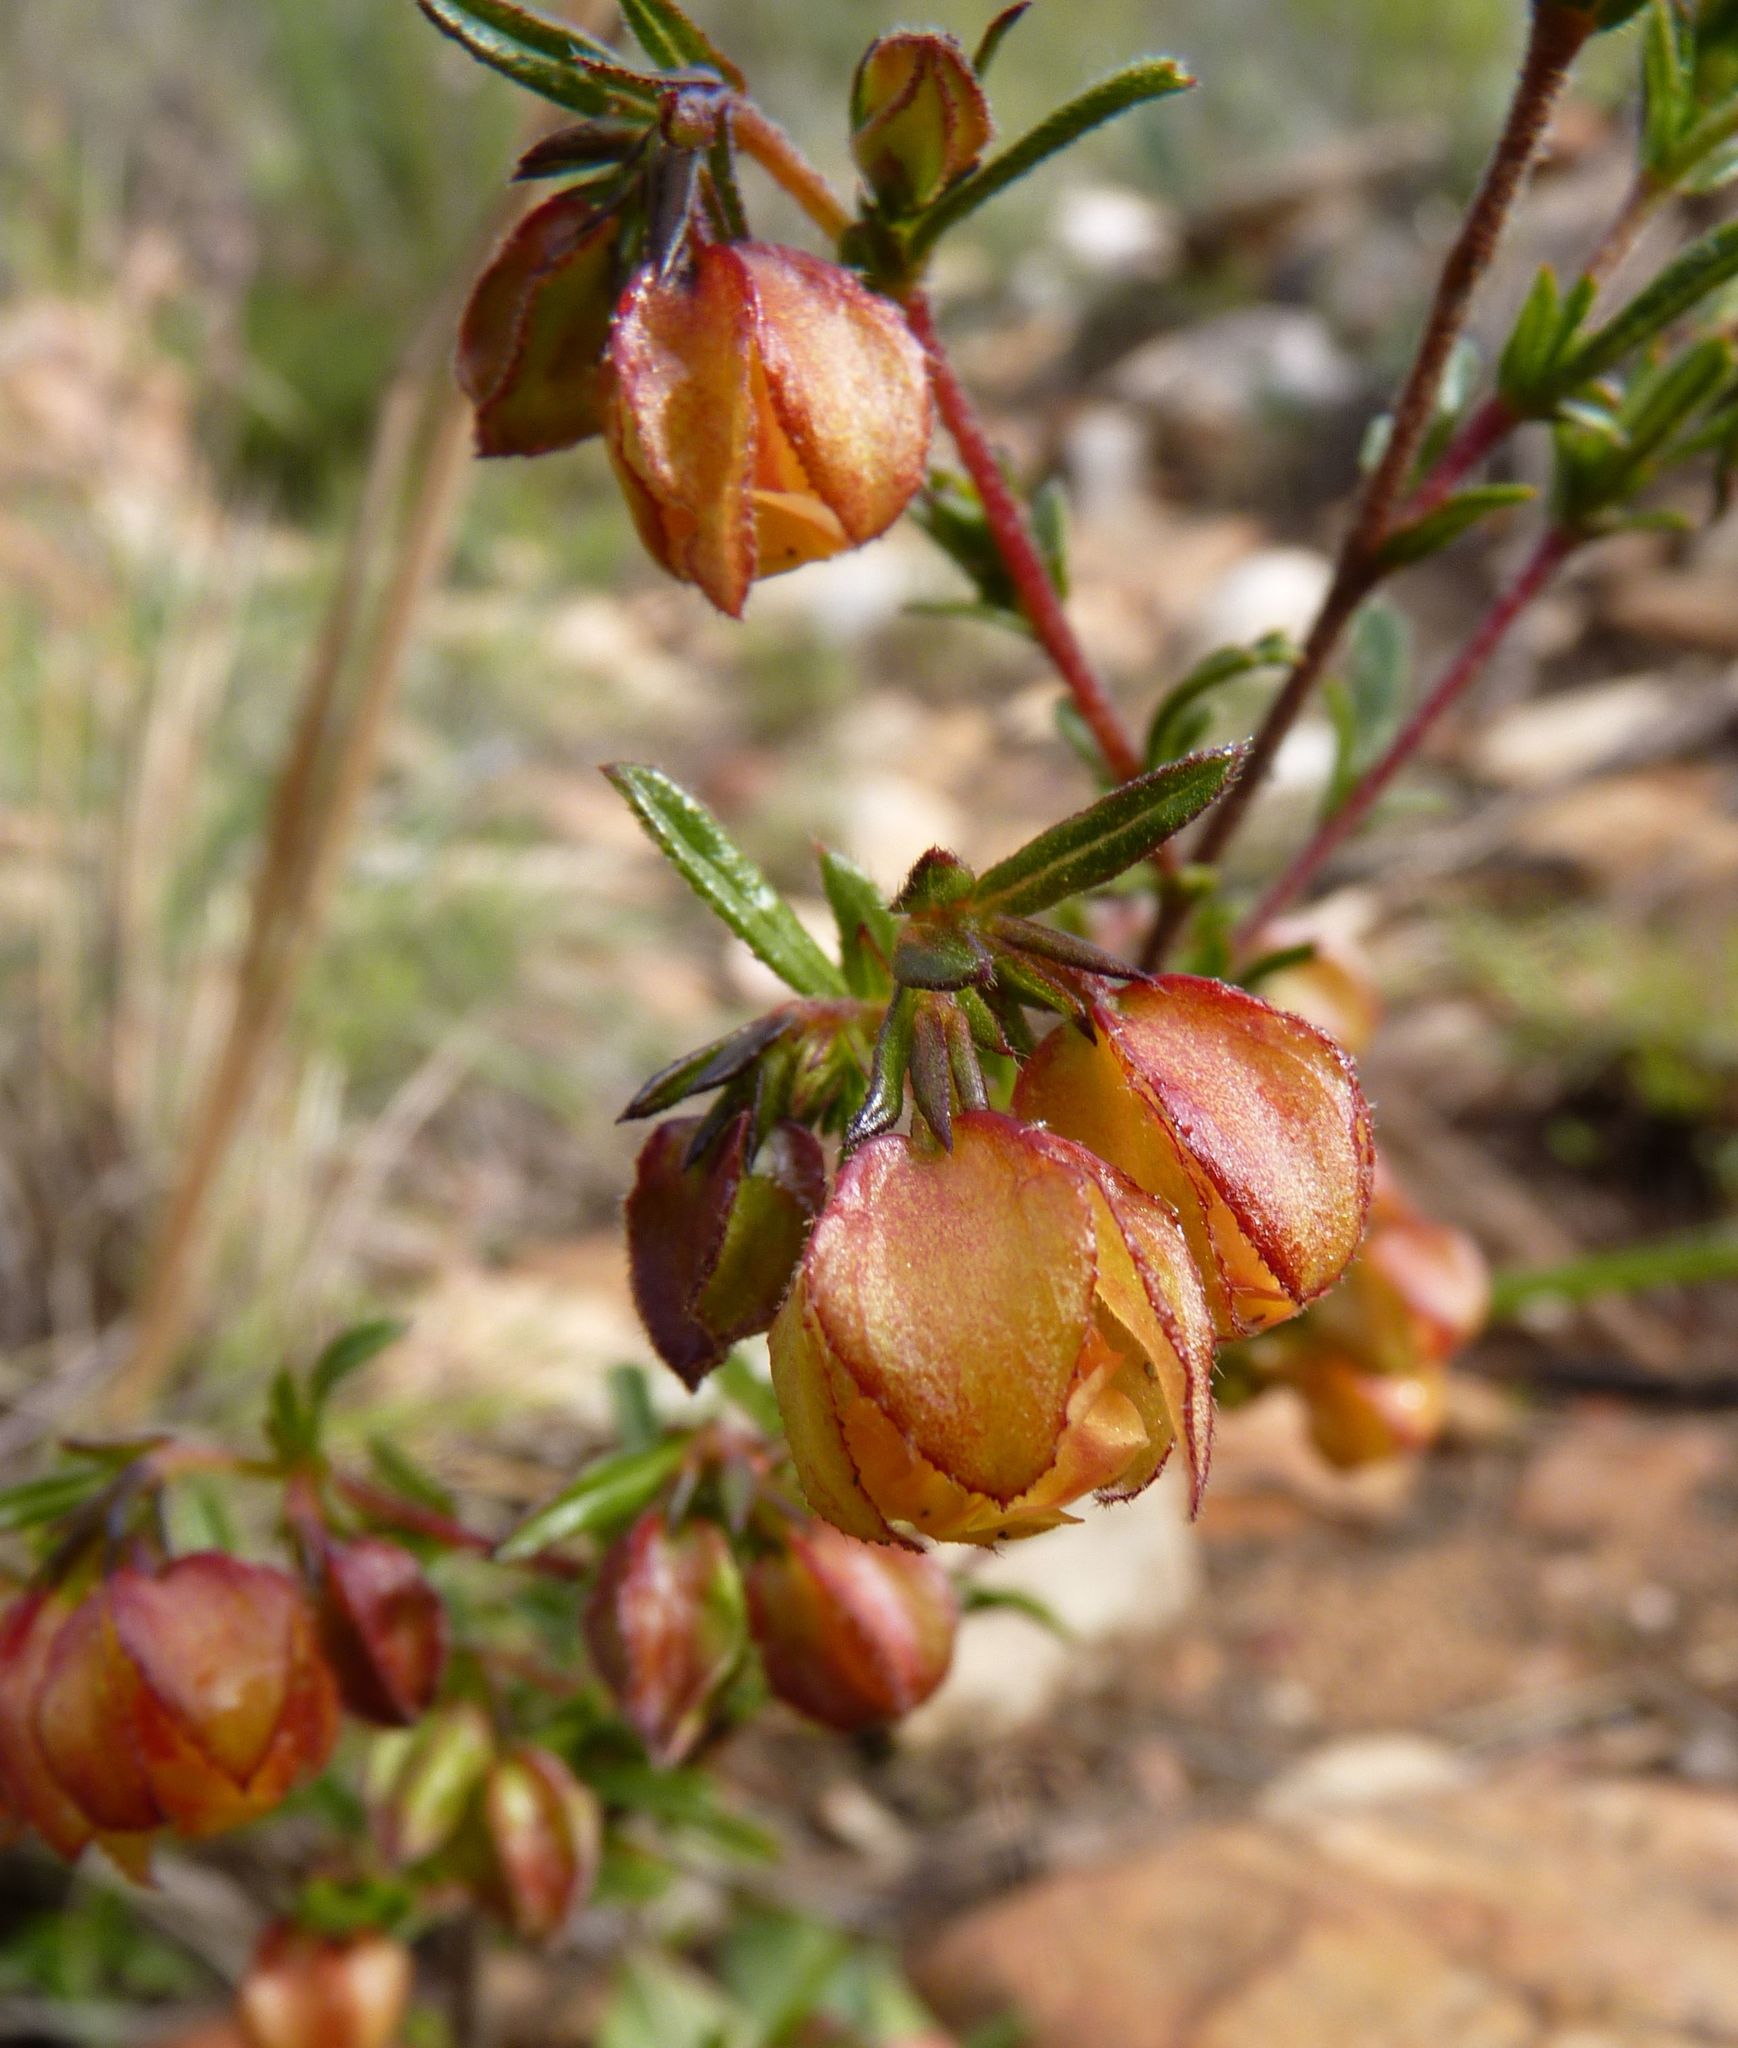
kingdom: Plantae
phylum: Tracheophyta
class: Magnoliopsida
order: Malvales
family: Malvaceae
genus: Hermannia
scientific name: Hermannia angularis
